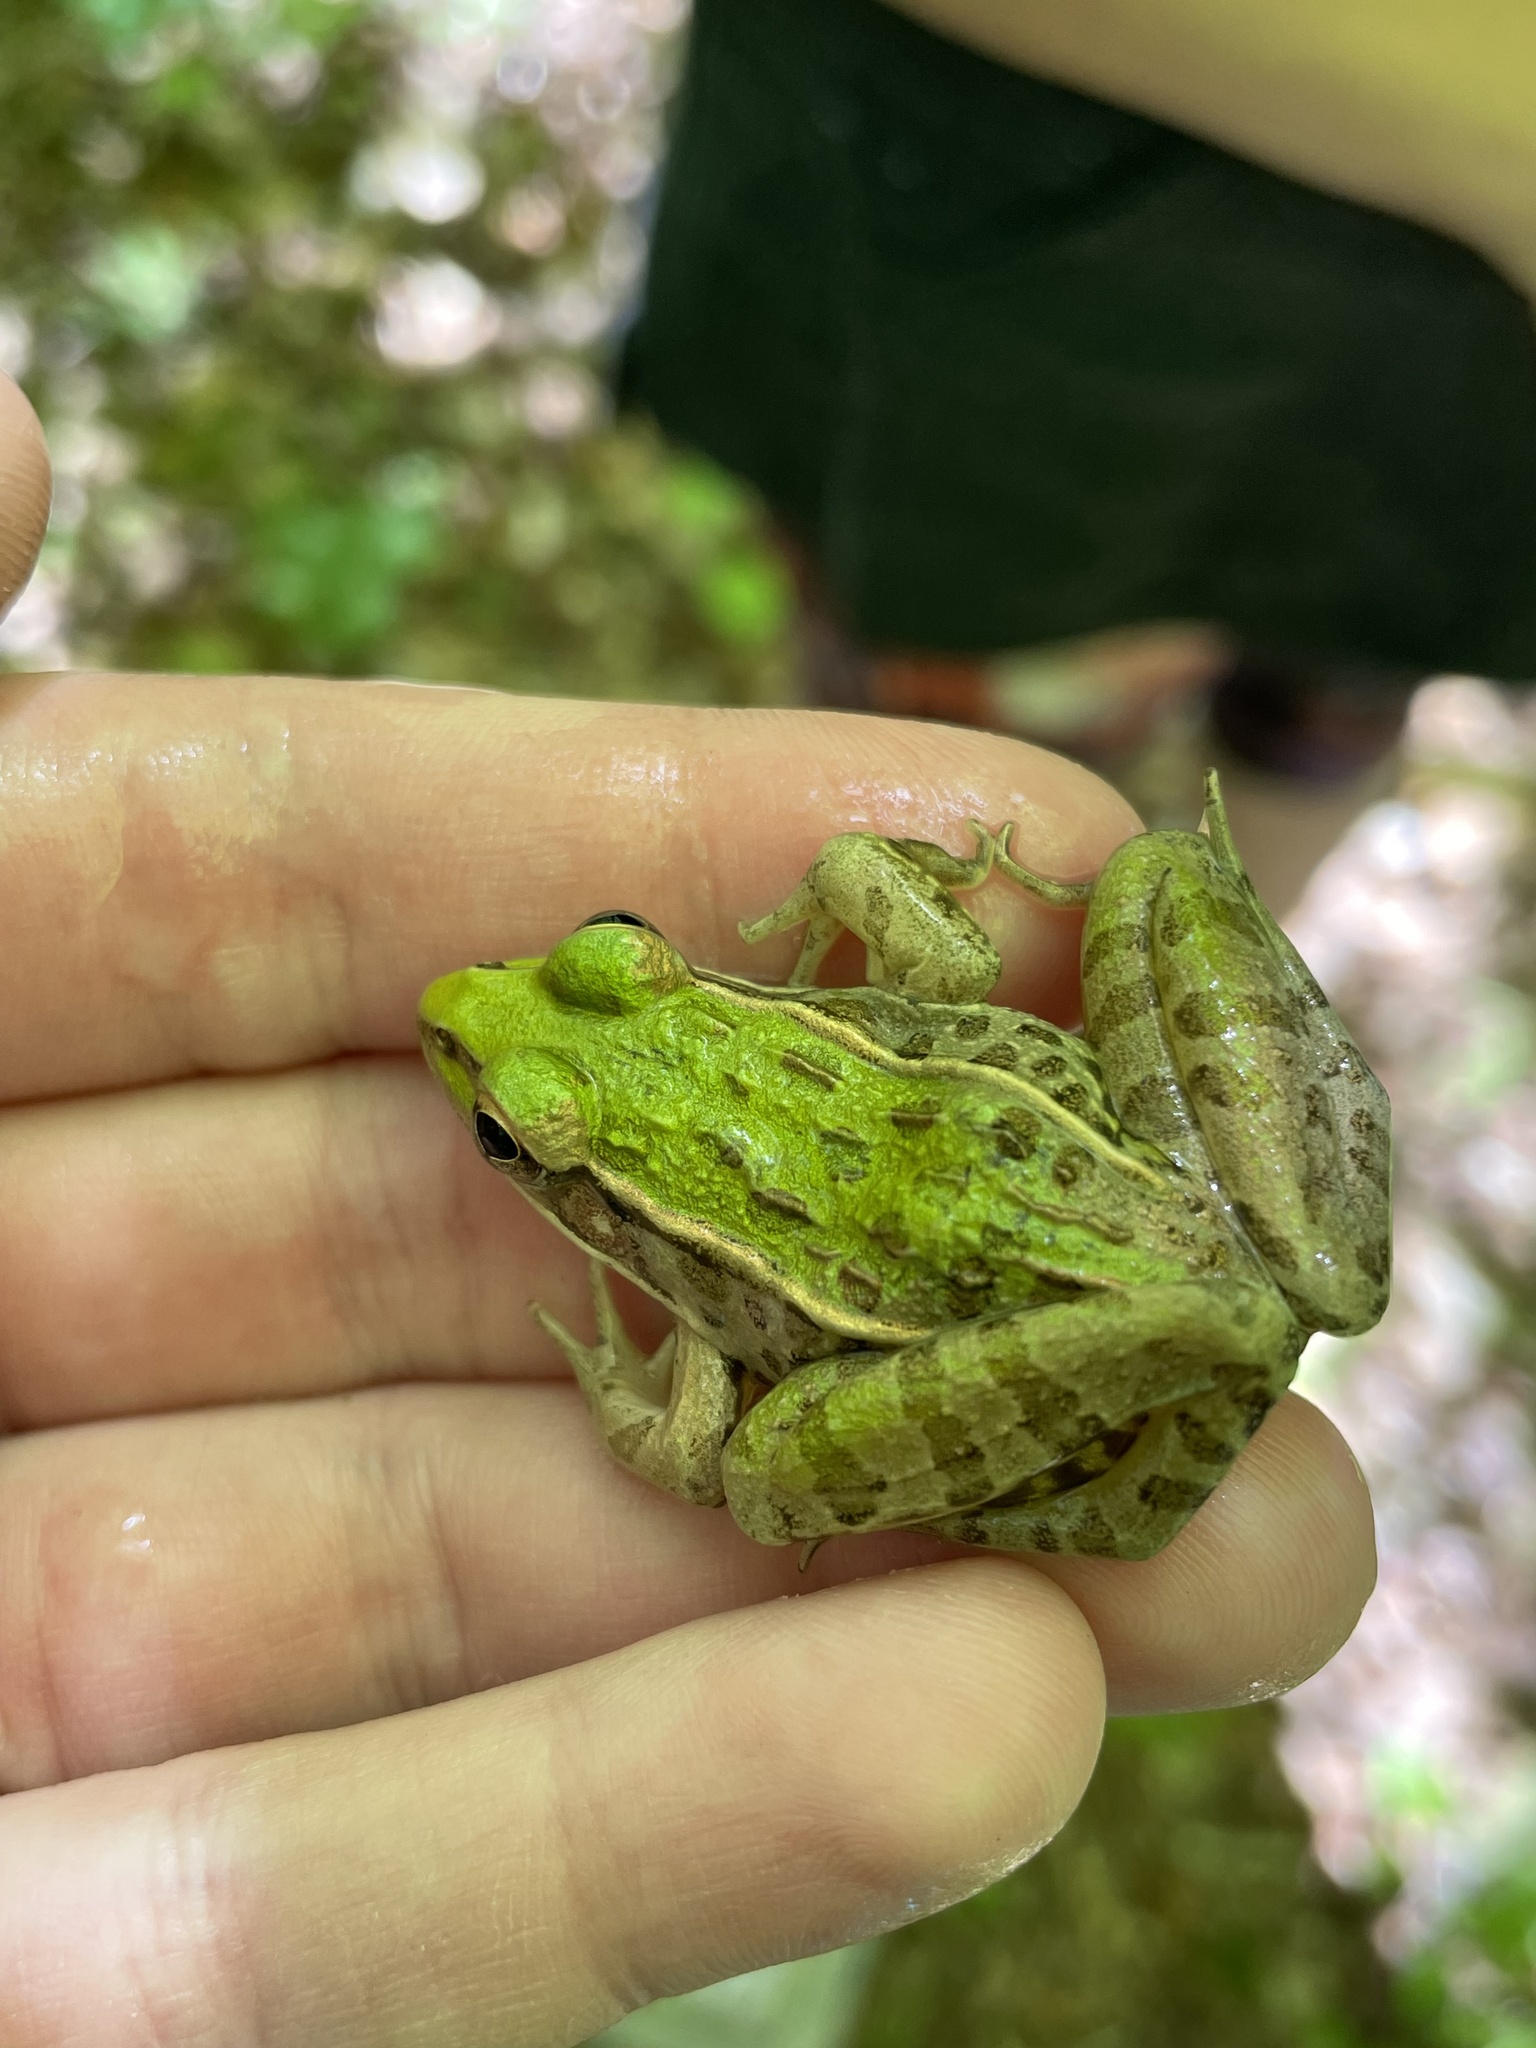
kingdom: Animalia
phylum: Chordata
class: Amphibia
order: Anura
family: Ranidae
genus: Lithobates
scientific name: Lithobates sphenocephalus
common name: Southern leopard frog
